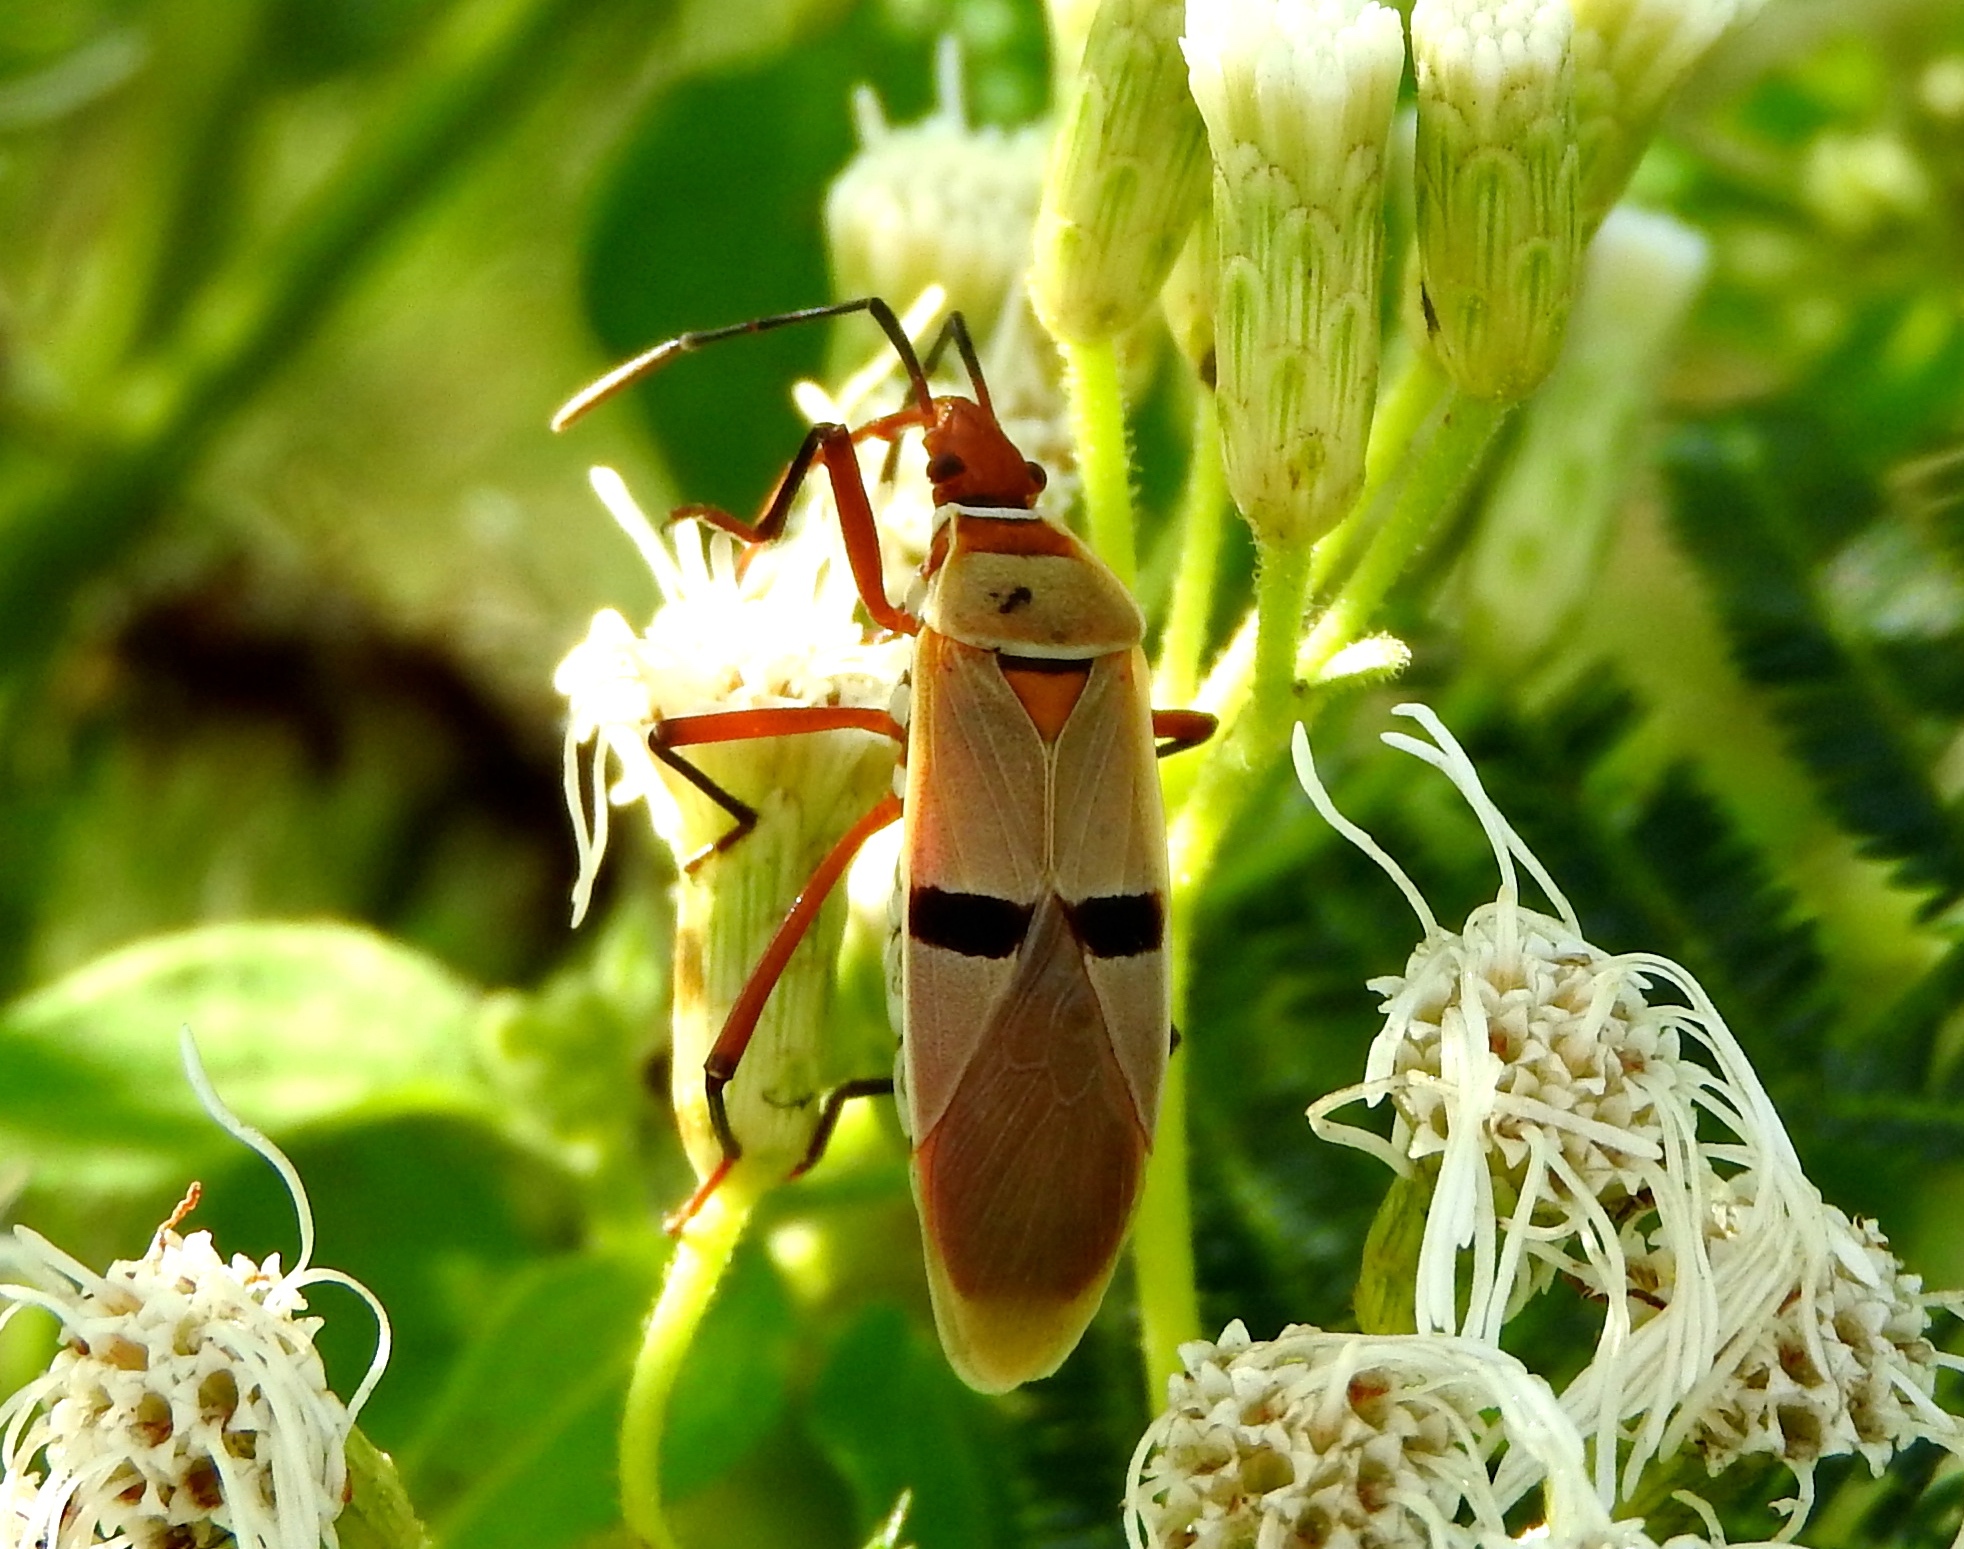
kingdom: Animalia
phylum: Arthropoda
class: Insecta
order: Hemiptera
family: Pyrrhocoridae
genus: Dysdercus
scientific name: Dysdercus
